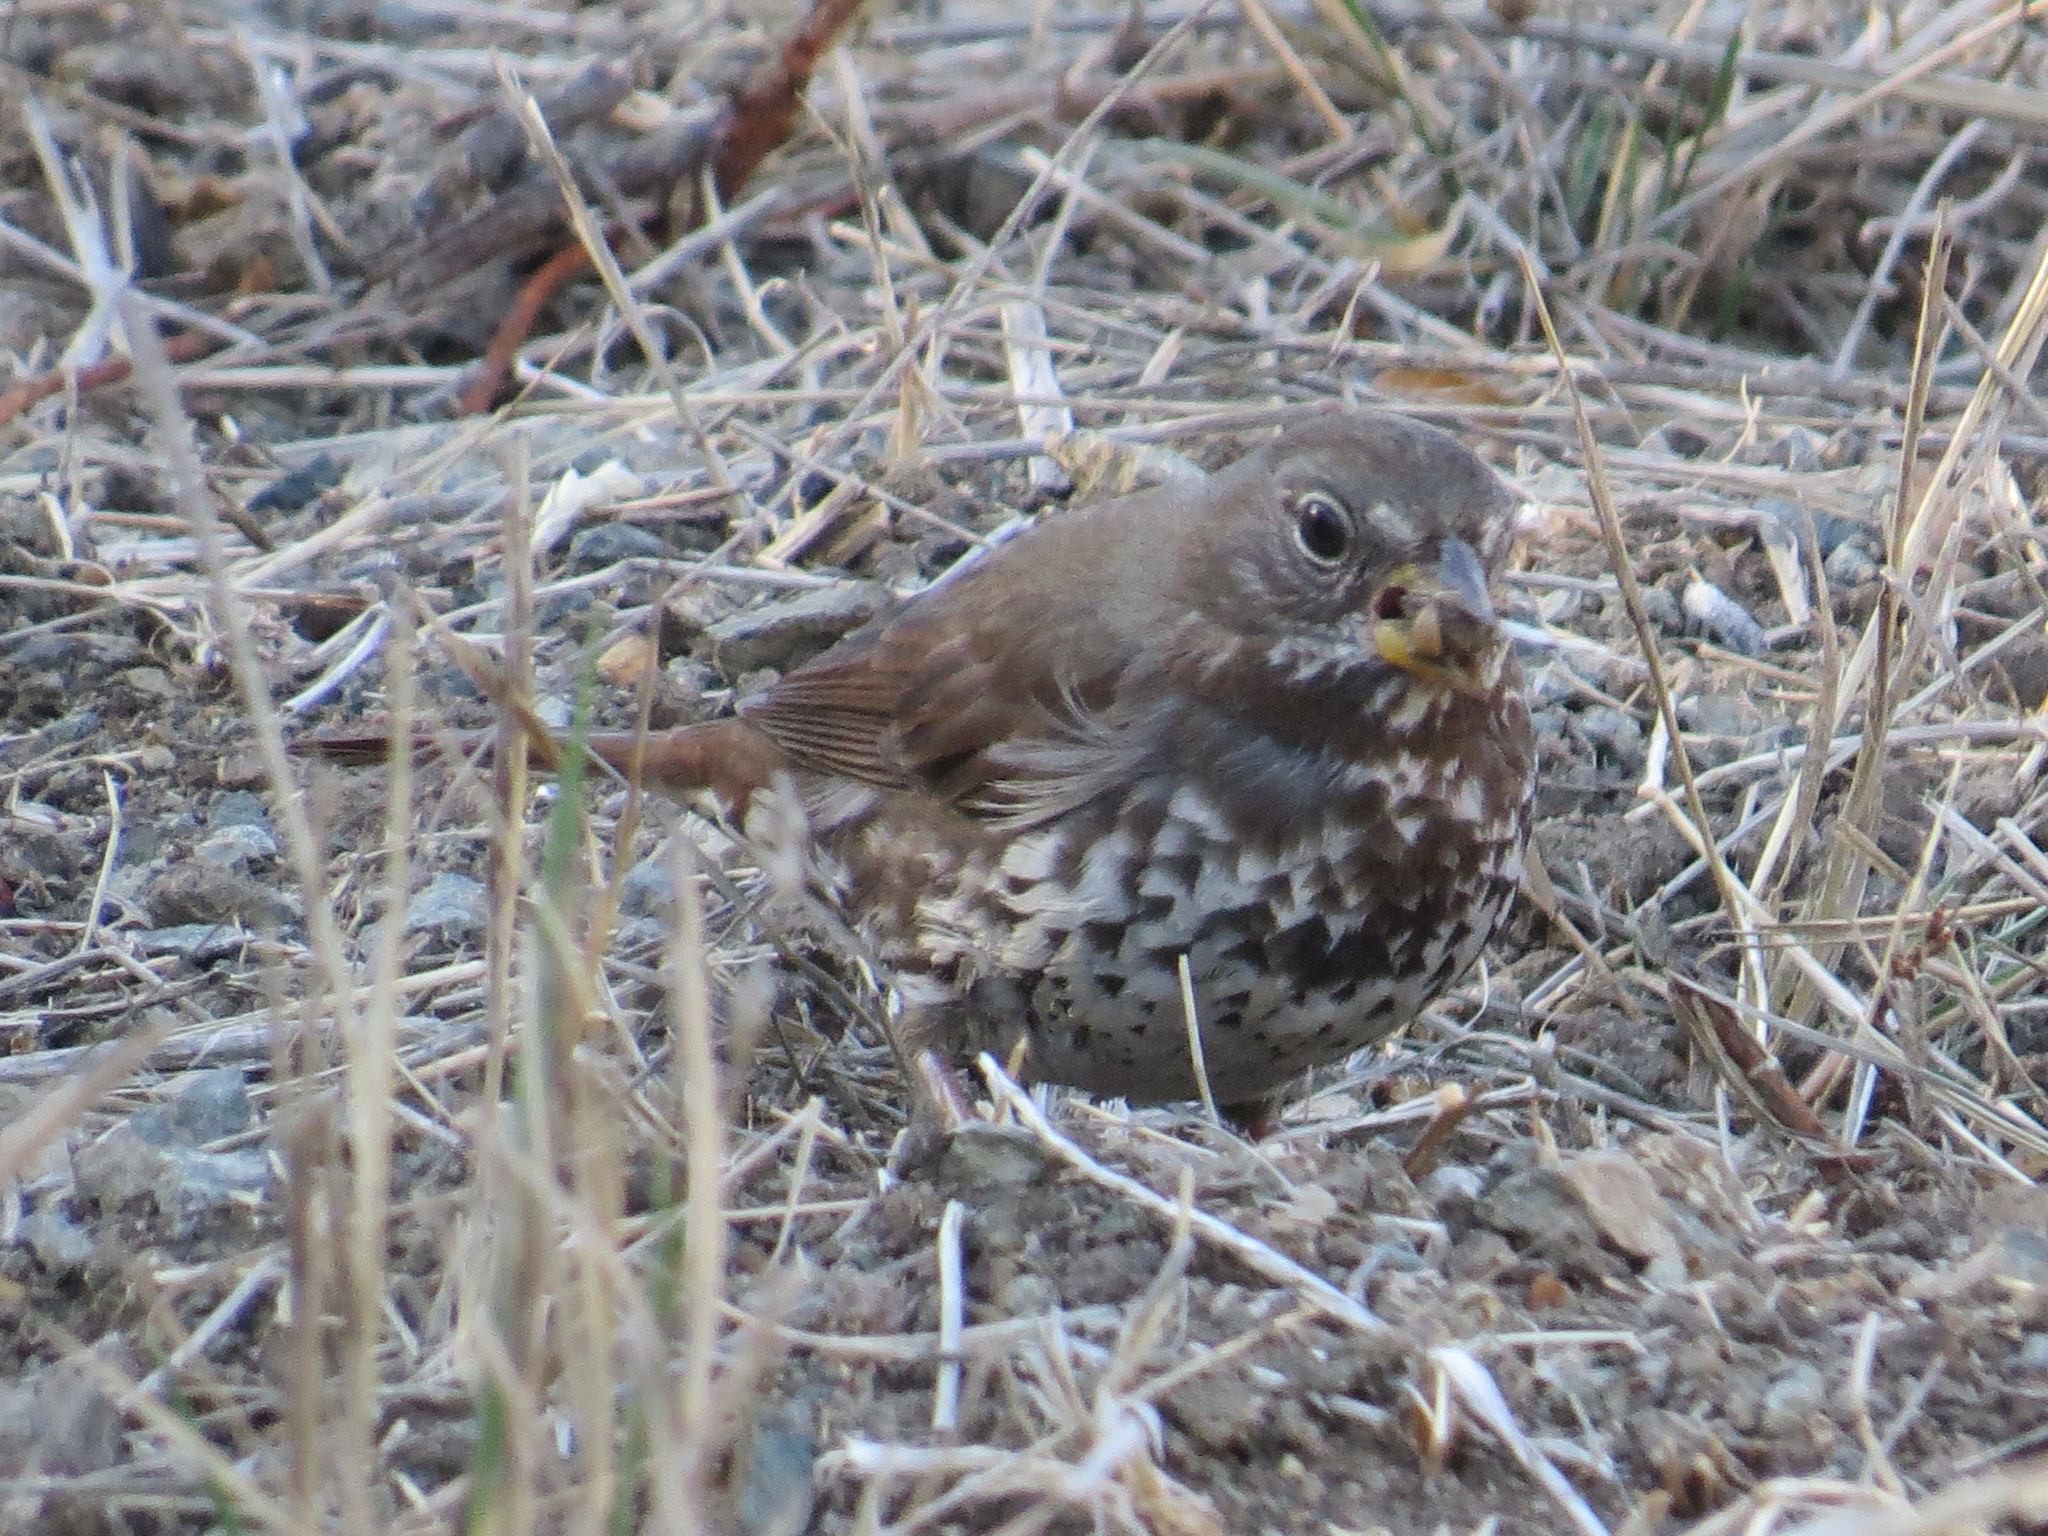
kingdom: Animalia
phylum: Chordata
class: Aves
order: Passeriformes
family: Passerellidae
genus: Passerella
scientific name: Passerella iliaca
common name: Fox sparrow
